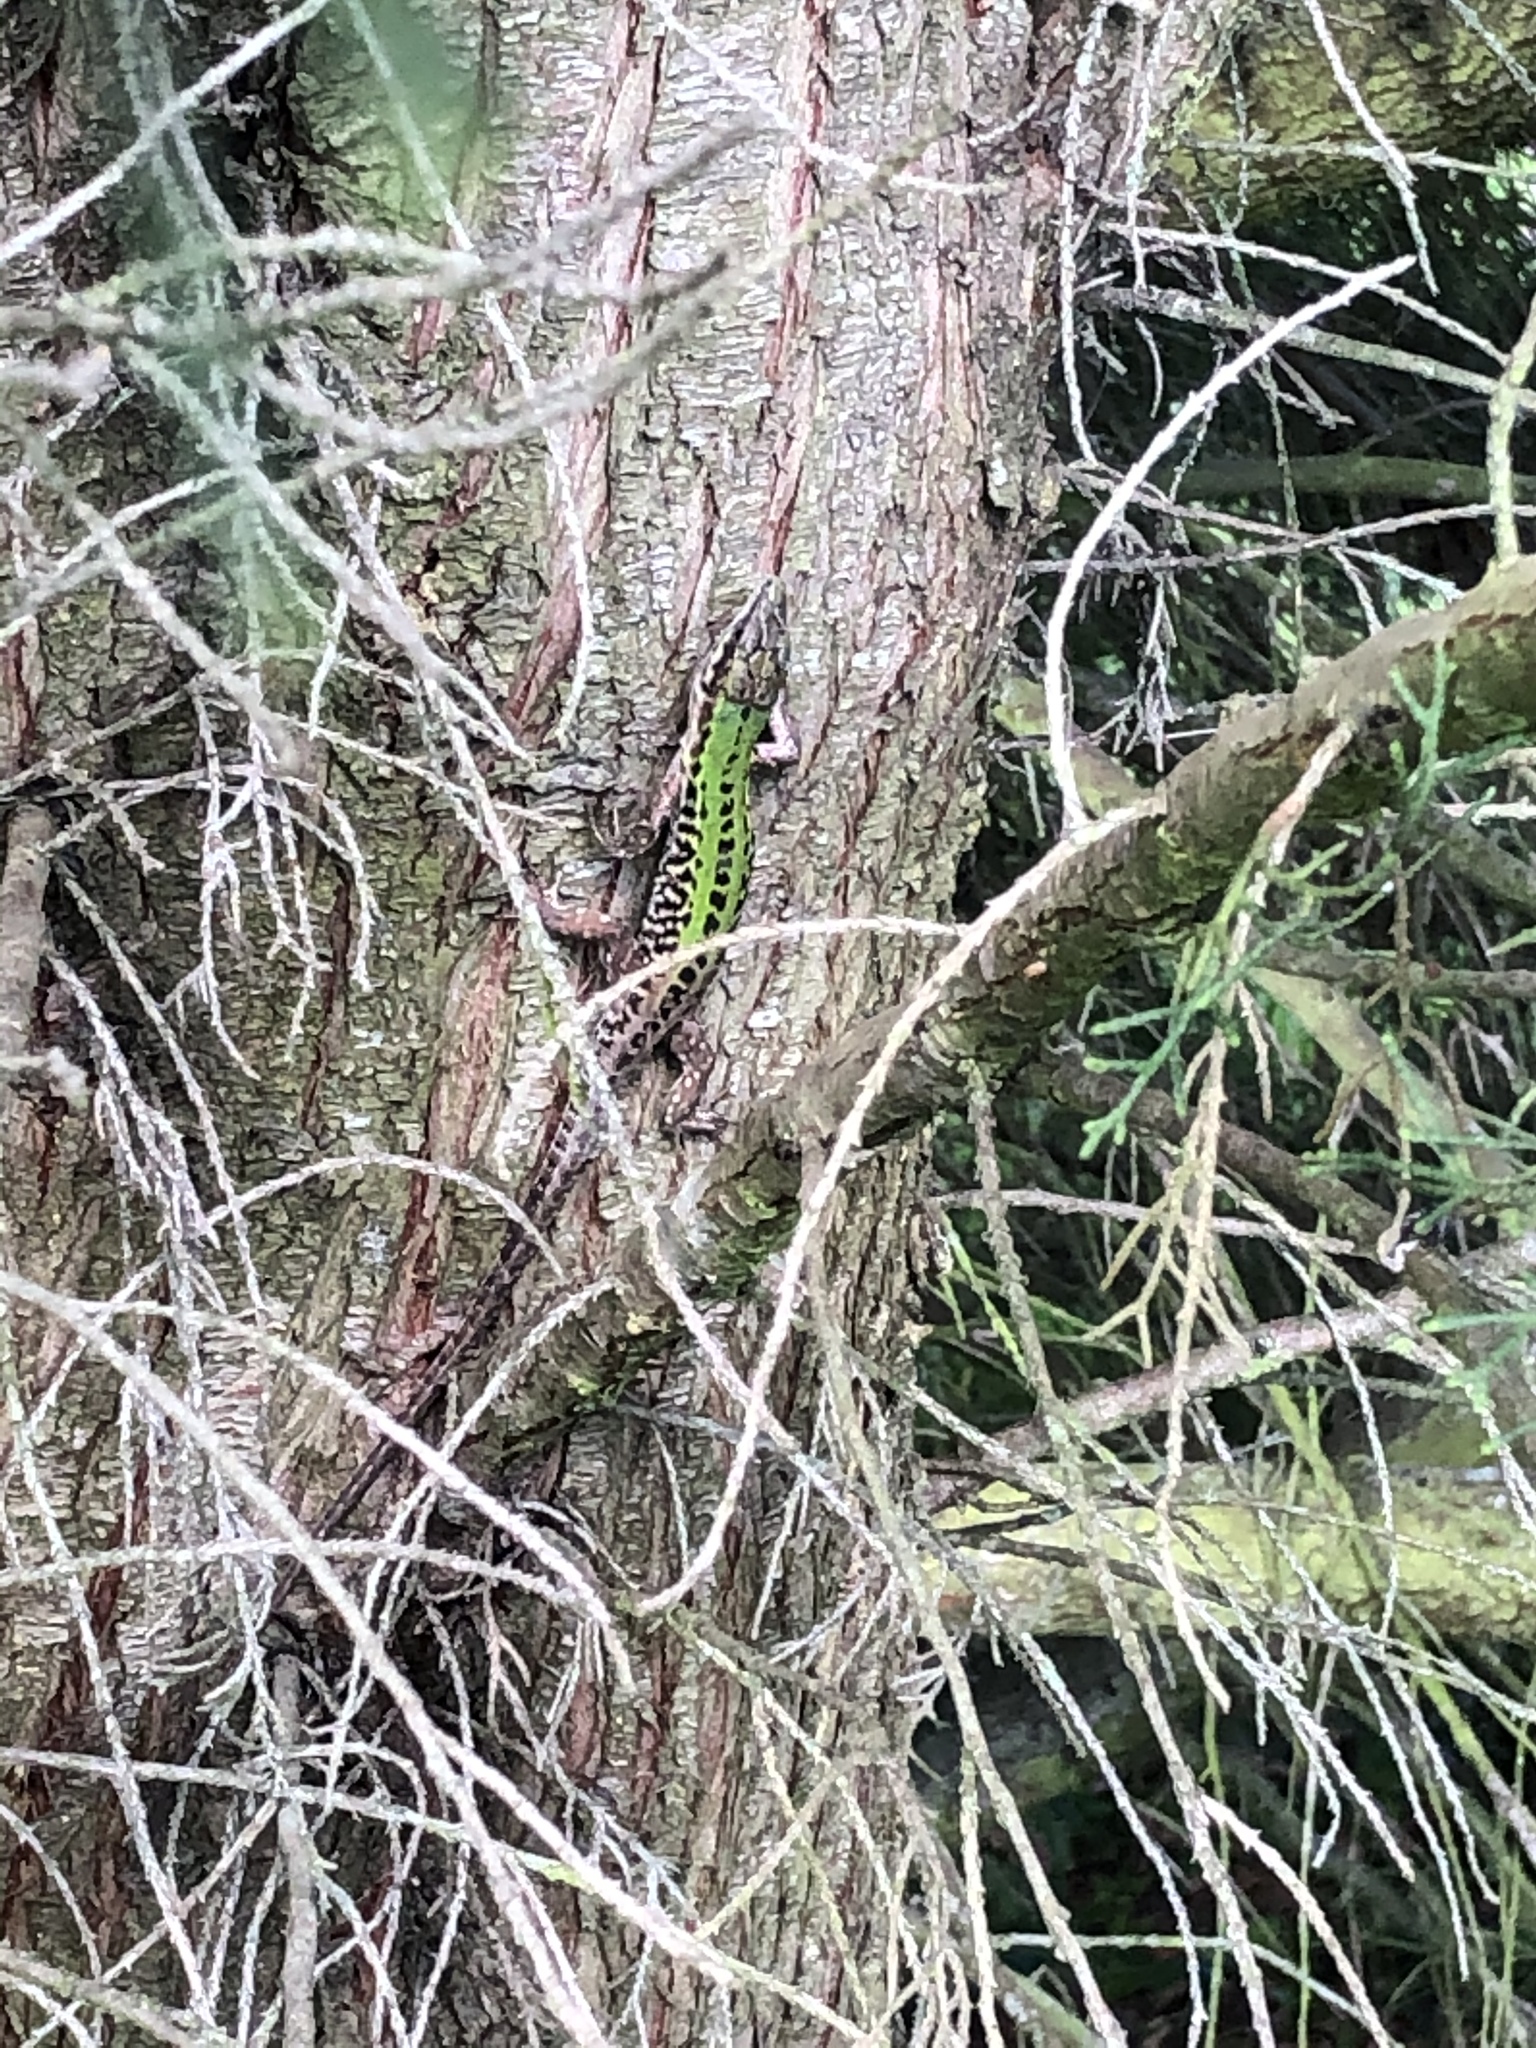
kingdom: Animalia
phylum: Chordata
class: Squamata
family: Lacertidae
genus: Podarcis
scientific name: Podarcis siculus
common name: Italian wall lizard
